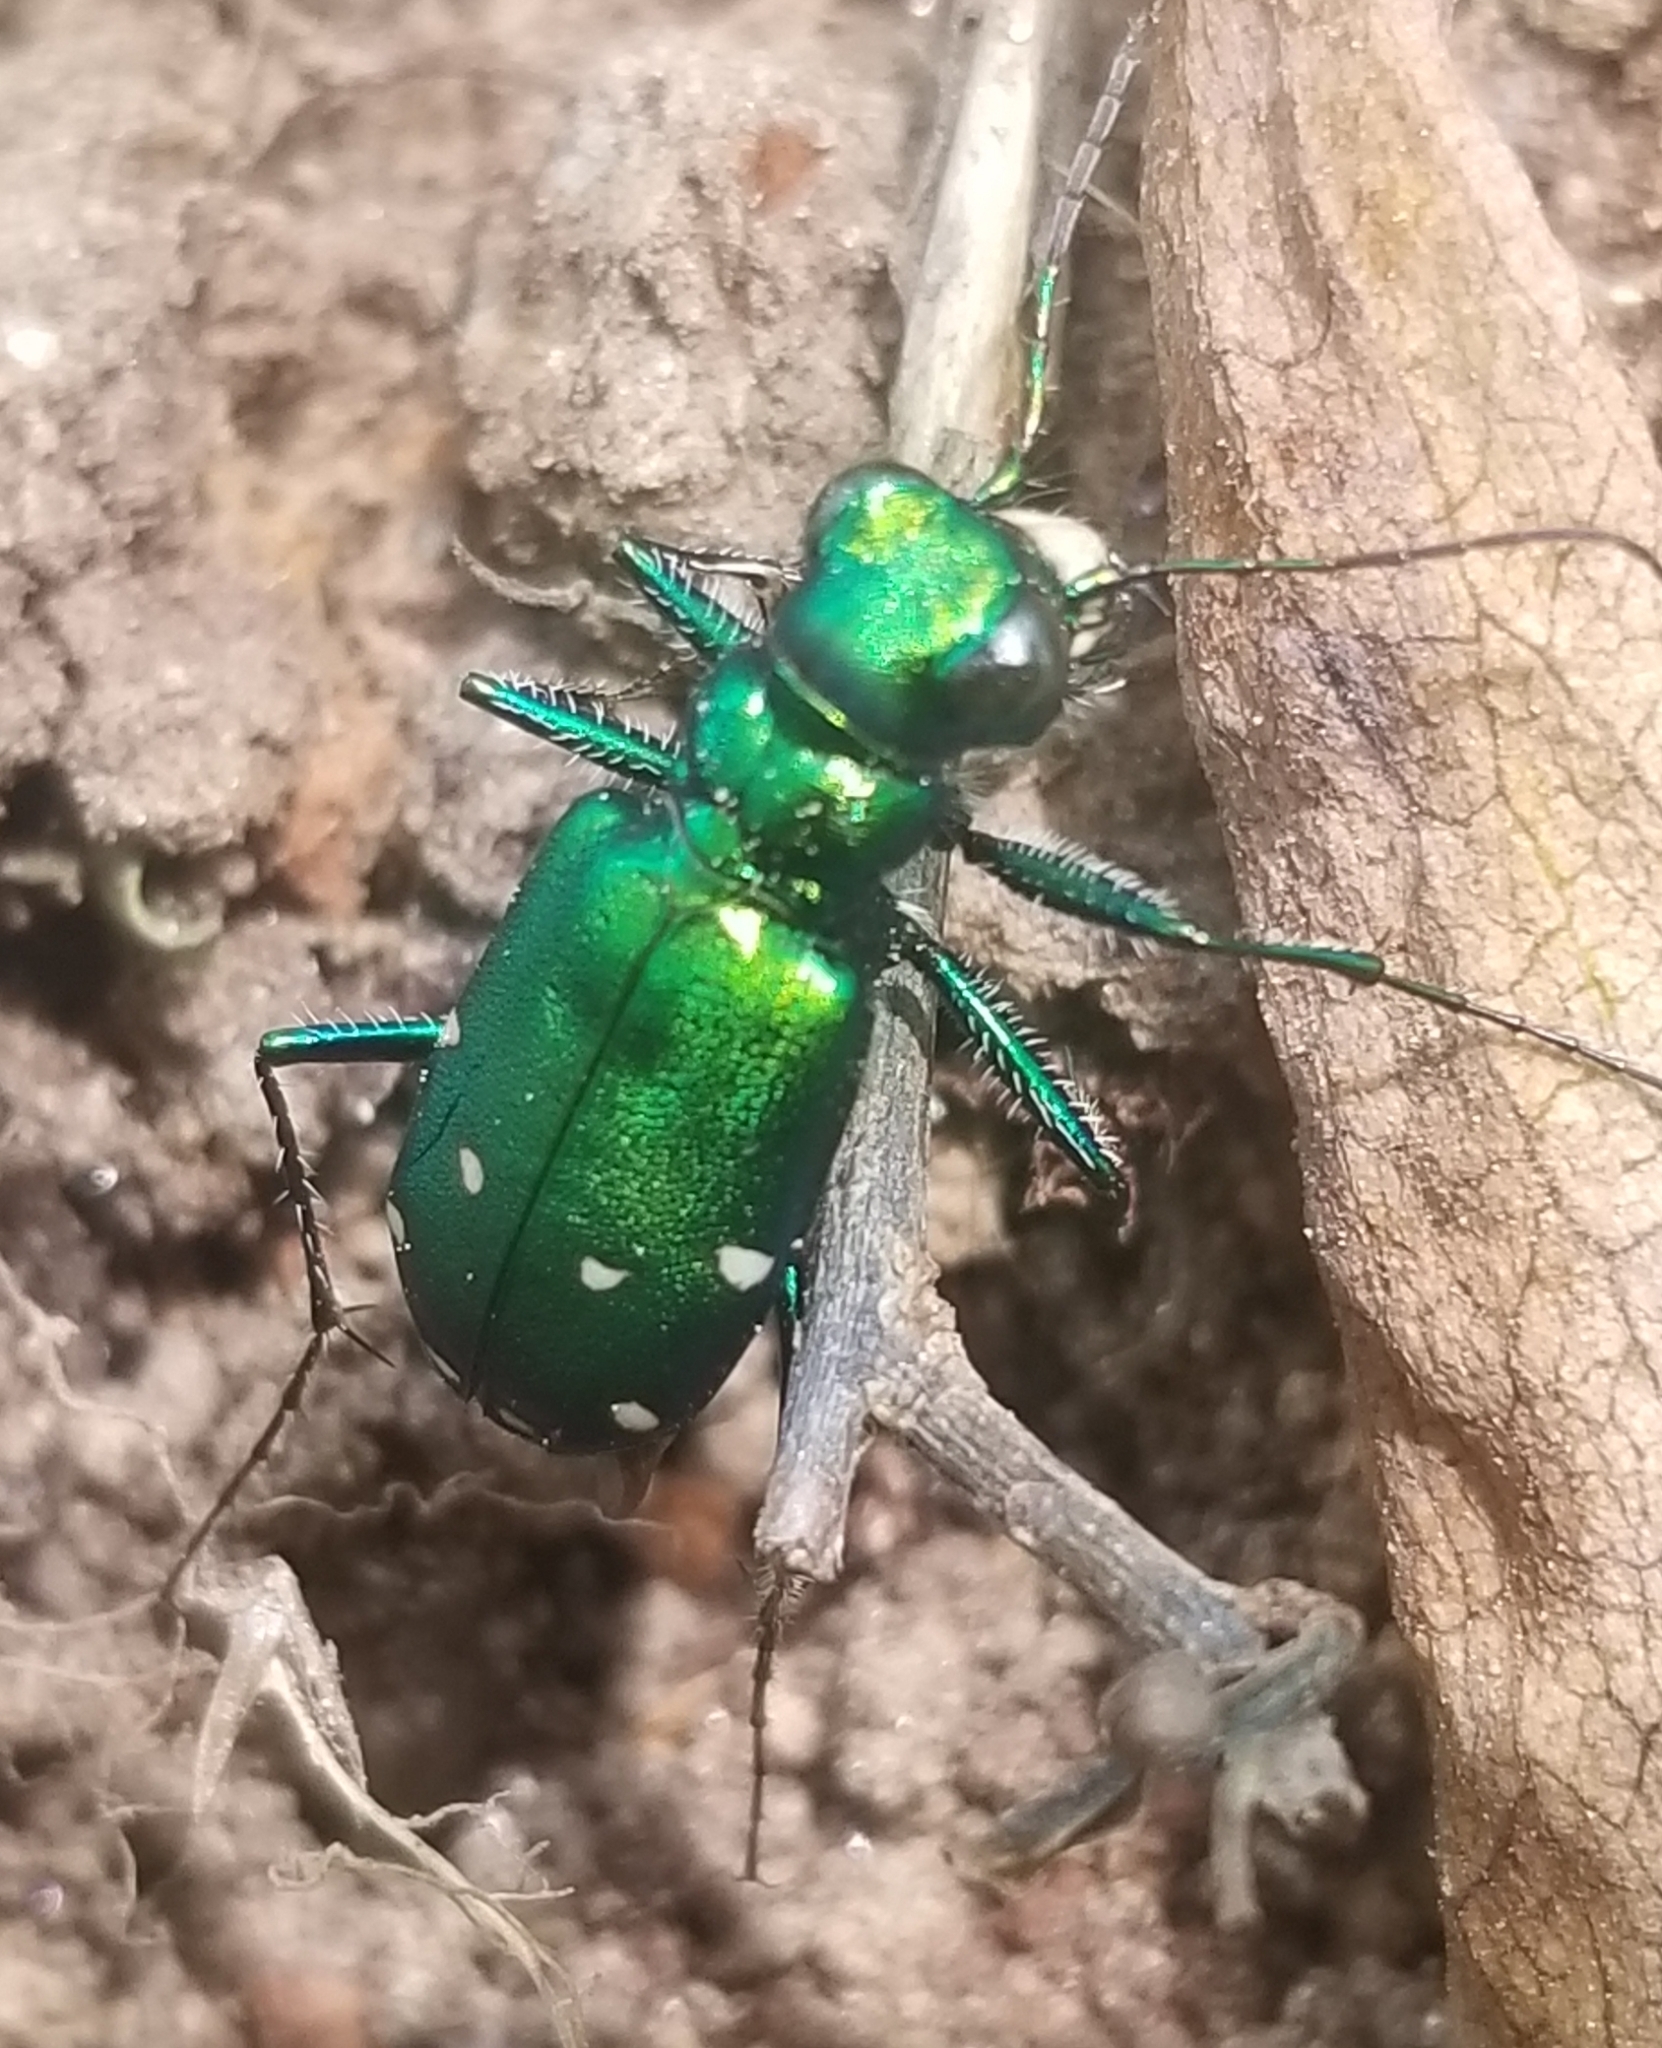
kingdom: Animalia
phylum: Arthropoda
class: Insecta
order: Coleoptera
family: Carabidae
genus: Cicindela
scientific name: Cicindela sexguttata
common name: Six-spotted tiger beetle
